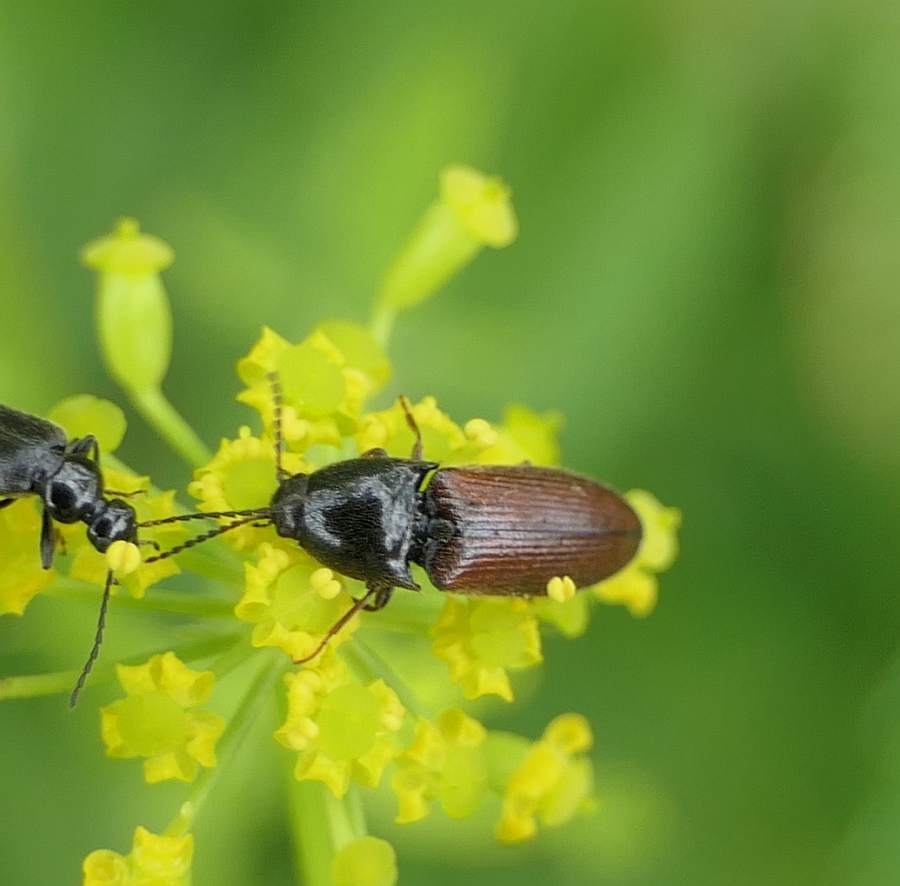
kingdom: Animalia
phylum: Arthropoda
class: Insecta
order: Coleoptera
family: Elateridae
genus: Ampedus
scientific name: Ampedus mixtus
